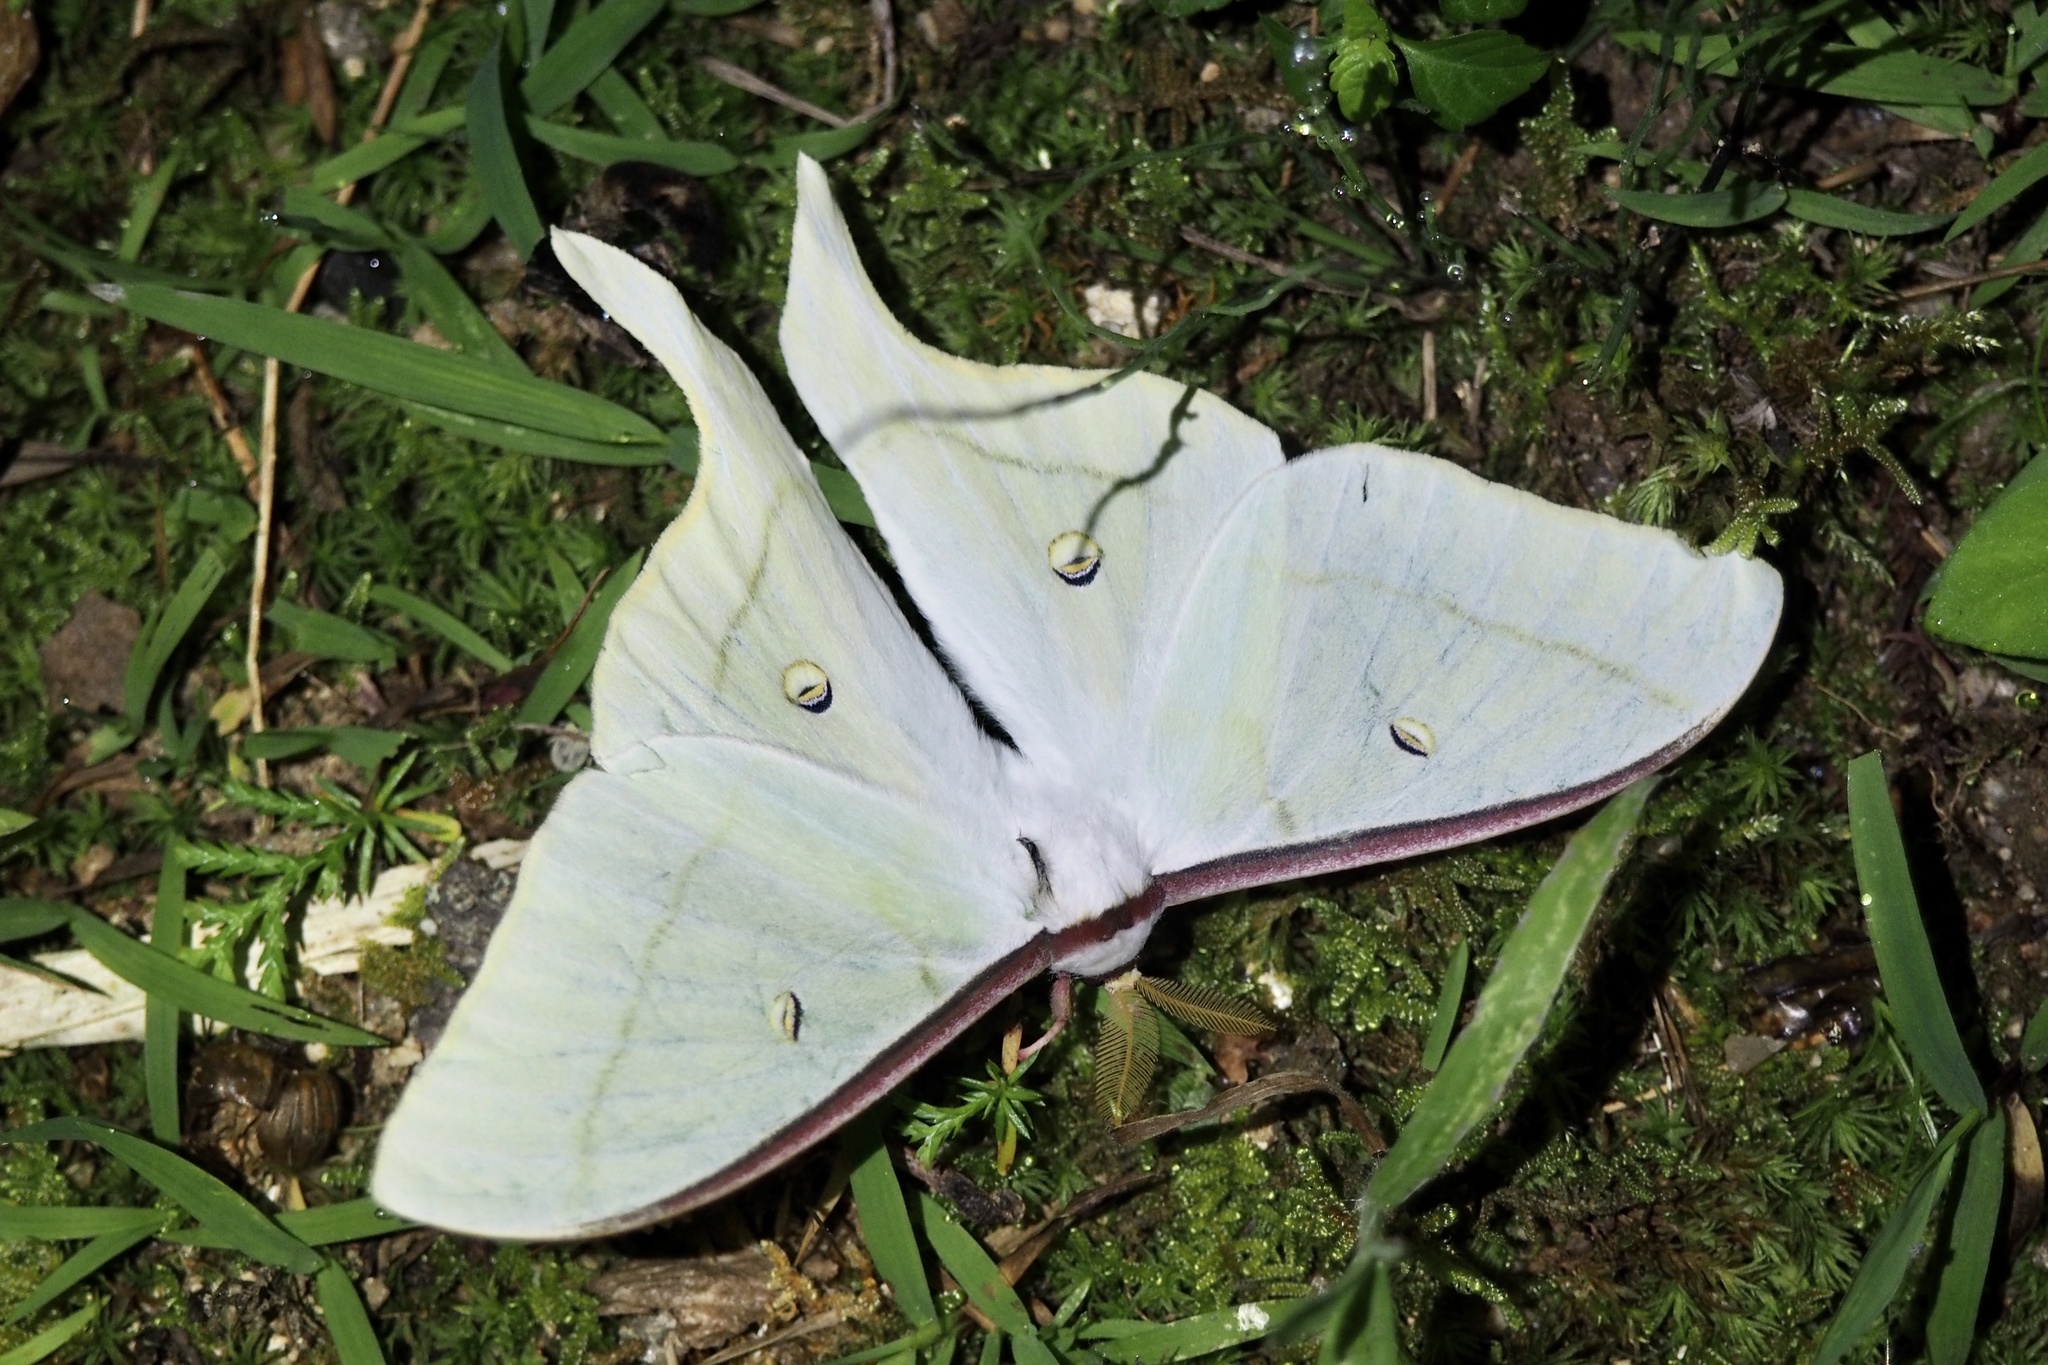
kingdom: Animalia
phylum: Arthropoda
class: Insecta
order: Lepidoptera
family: Saturniidae
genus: Actias
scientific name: Actias aliena
